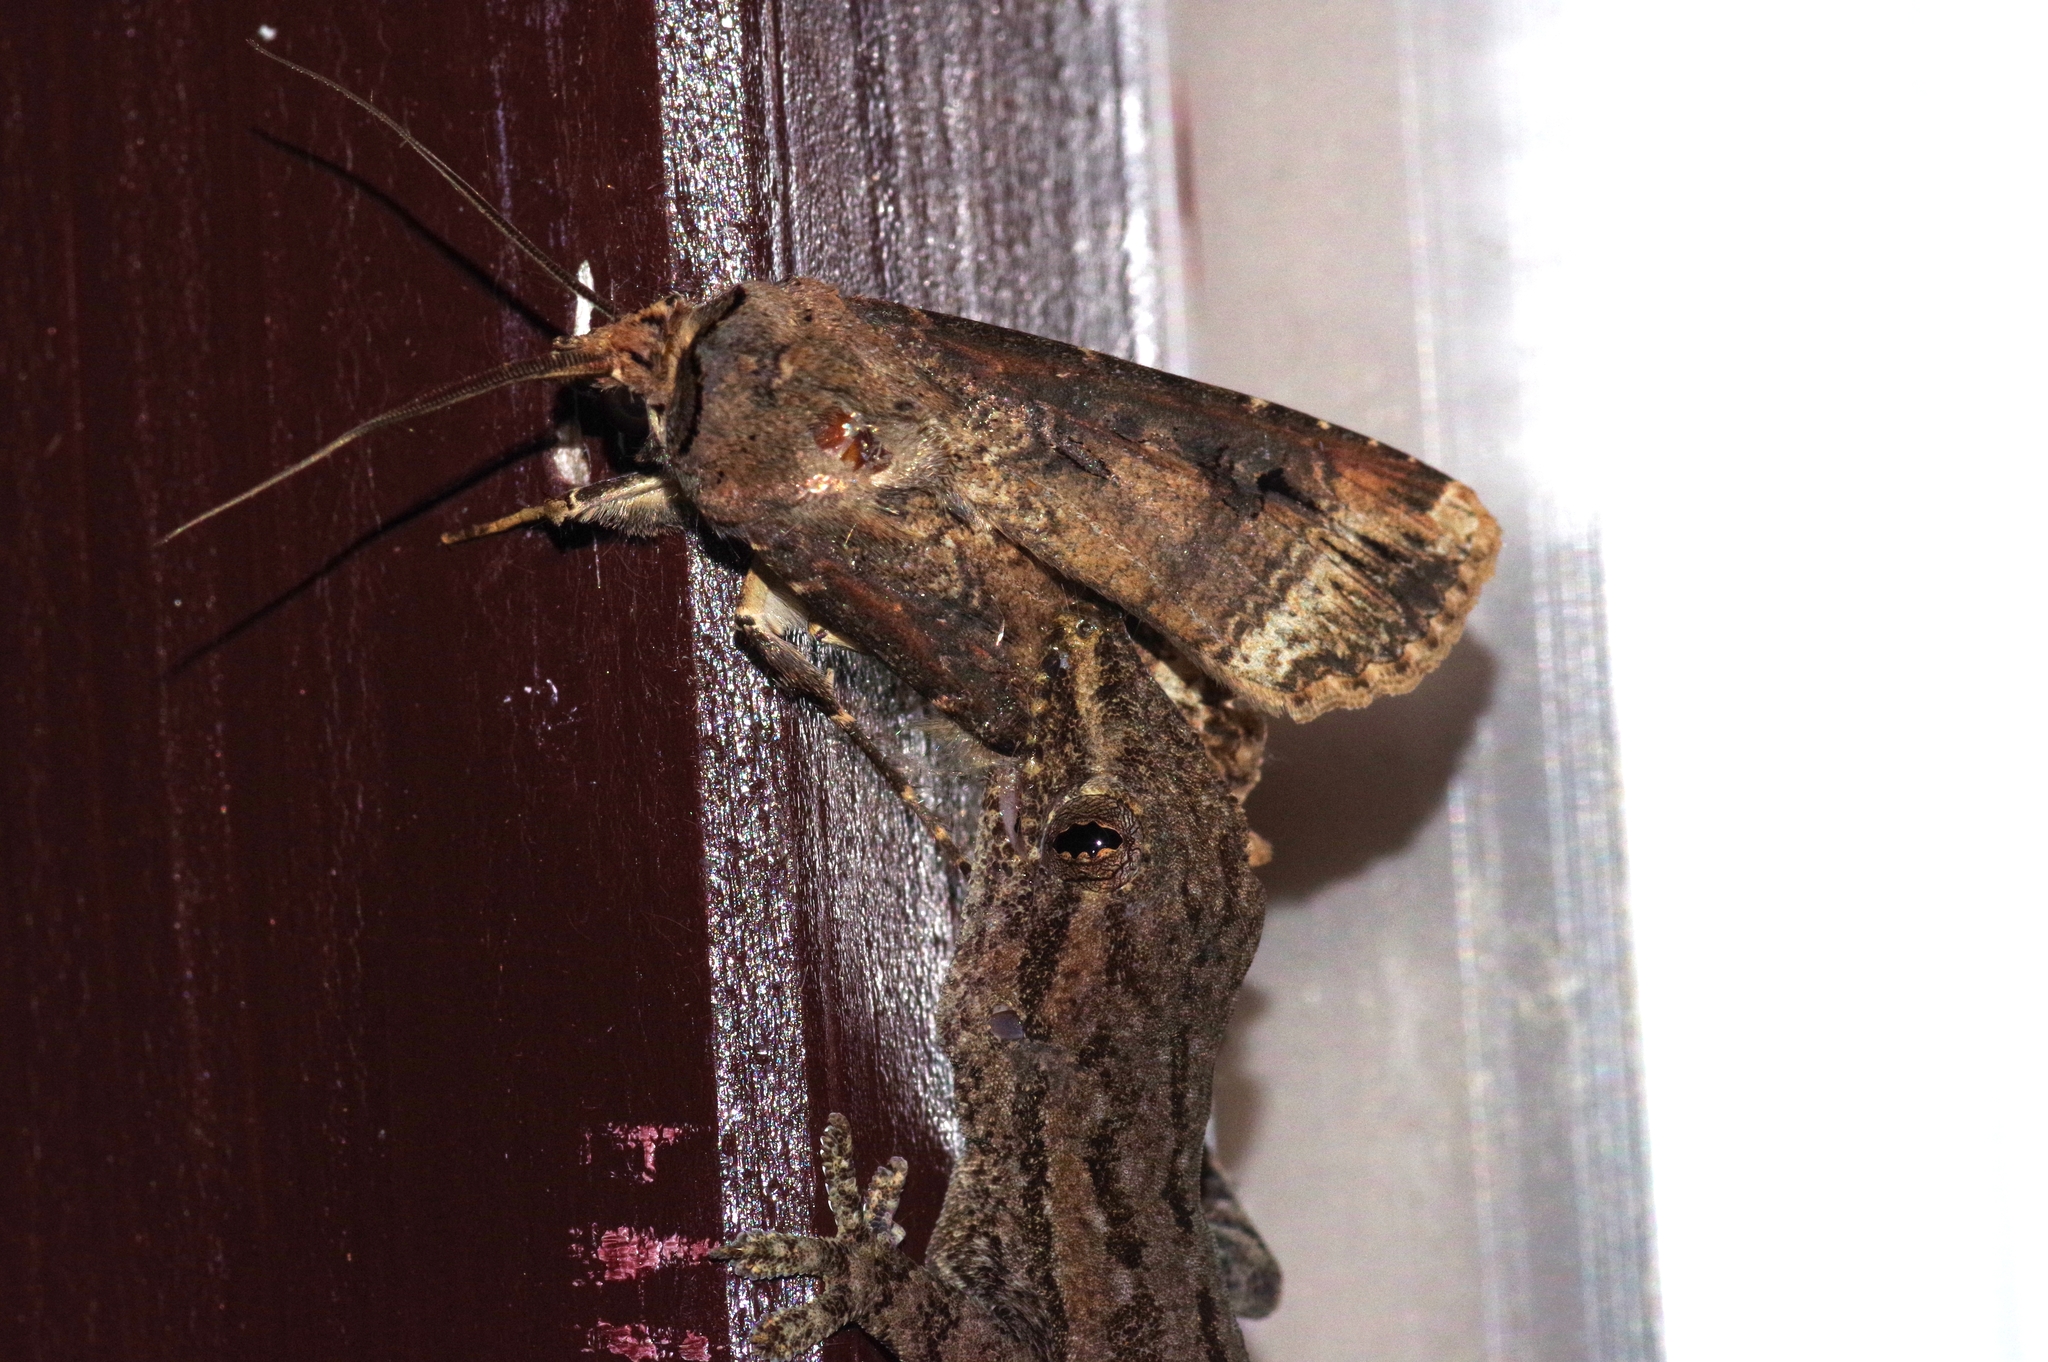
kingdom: Animalia
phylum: Arthropoda
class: Insecta
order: Lepidoptera
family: Noctuidae
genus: Agrotis
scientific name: Agrotis ipsilon
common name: Dark sword-grass
